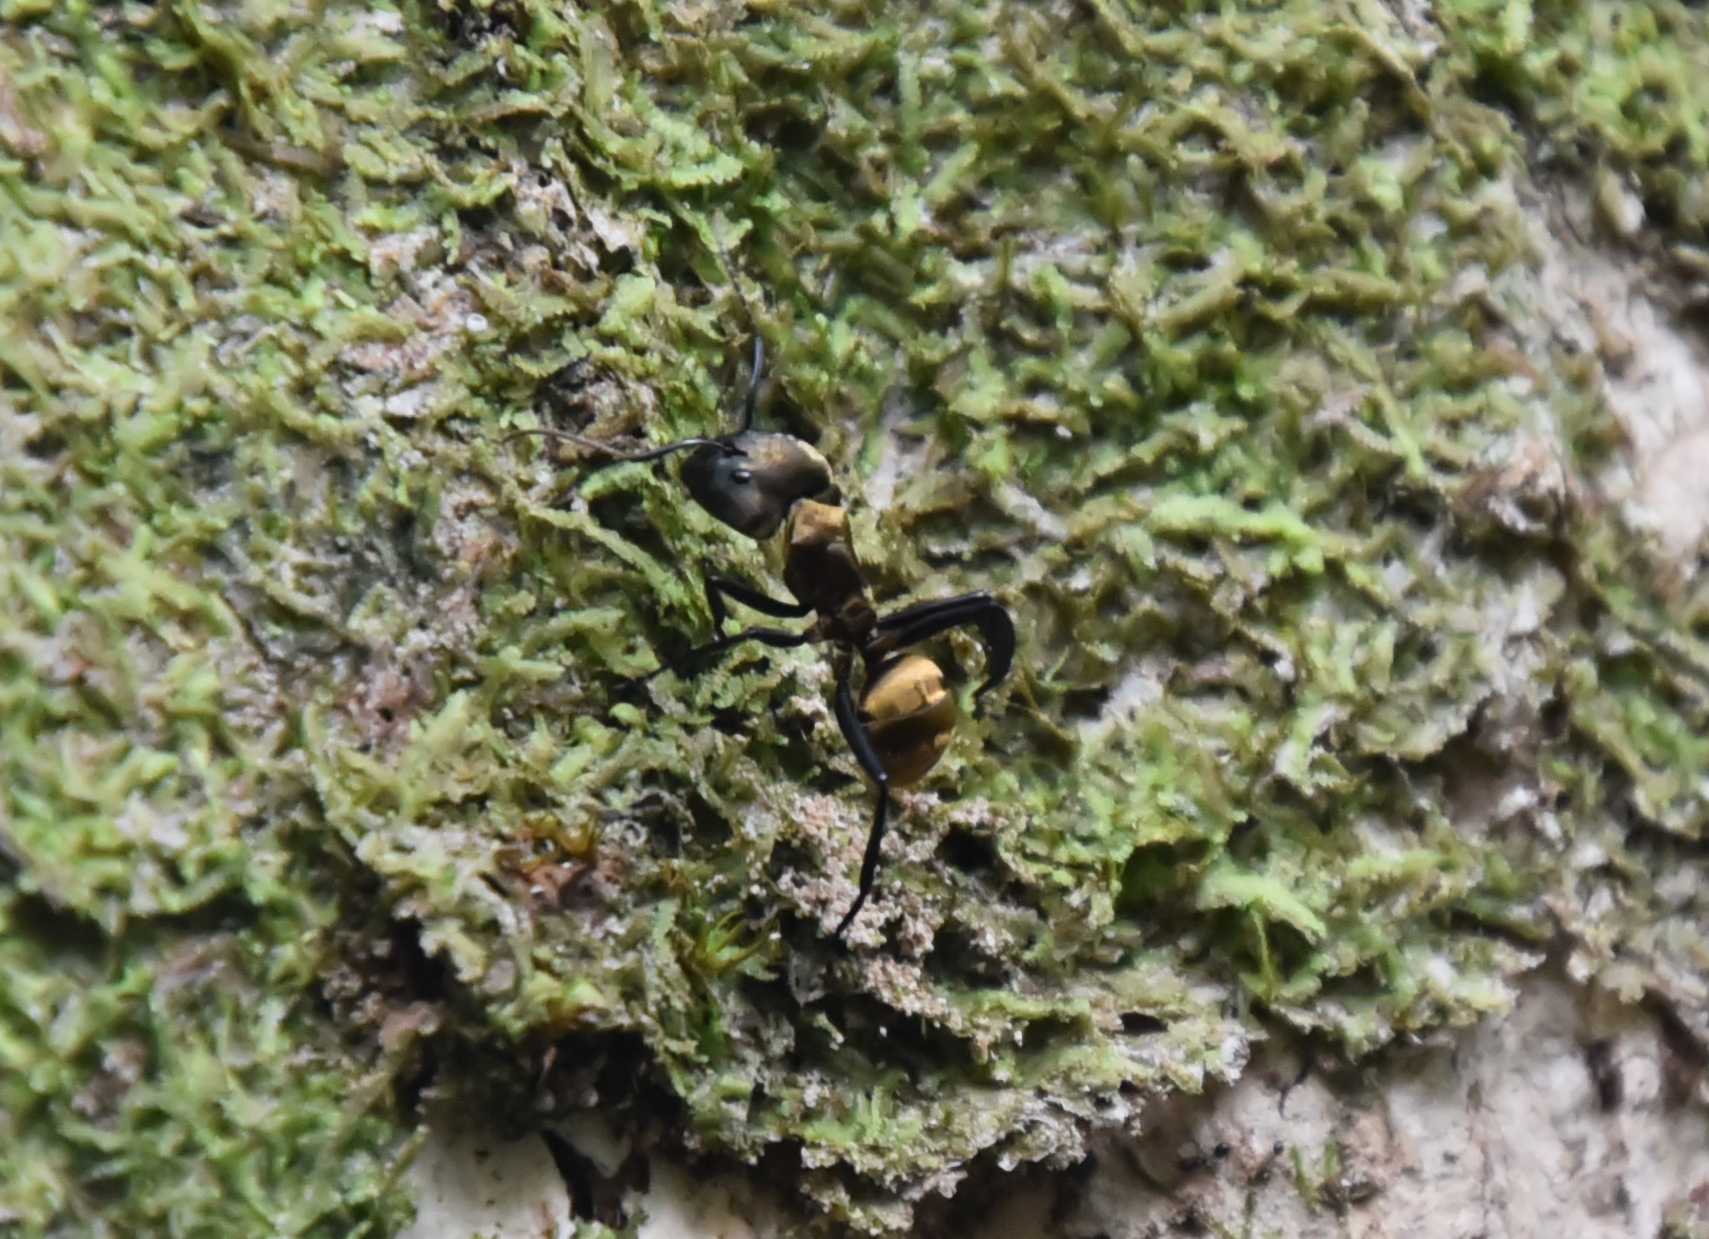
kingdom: Animalia
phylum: Arthropoda
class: Insecta
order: Hymenoptera
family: Formicidae
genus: Camponotus
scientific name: Camponotus sericeiventris
